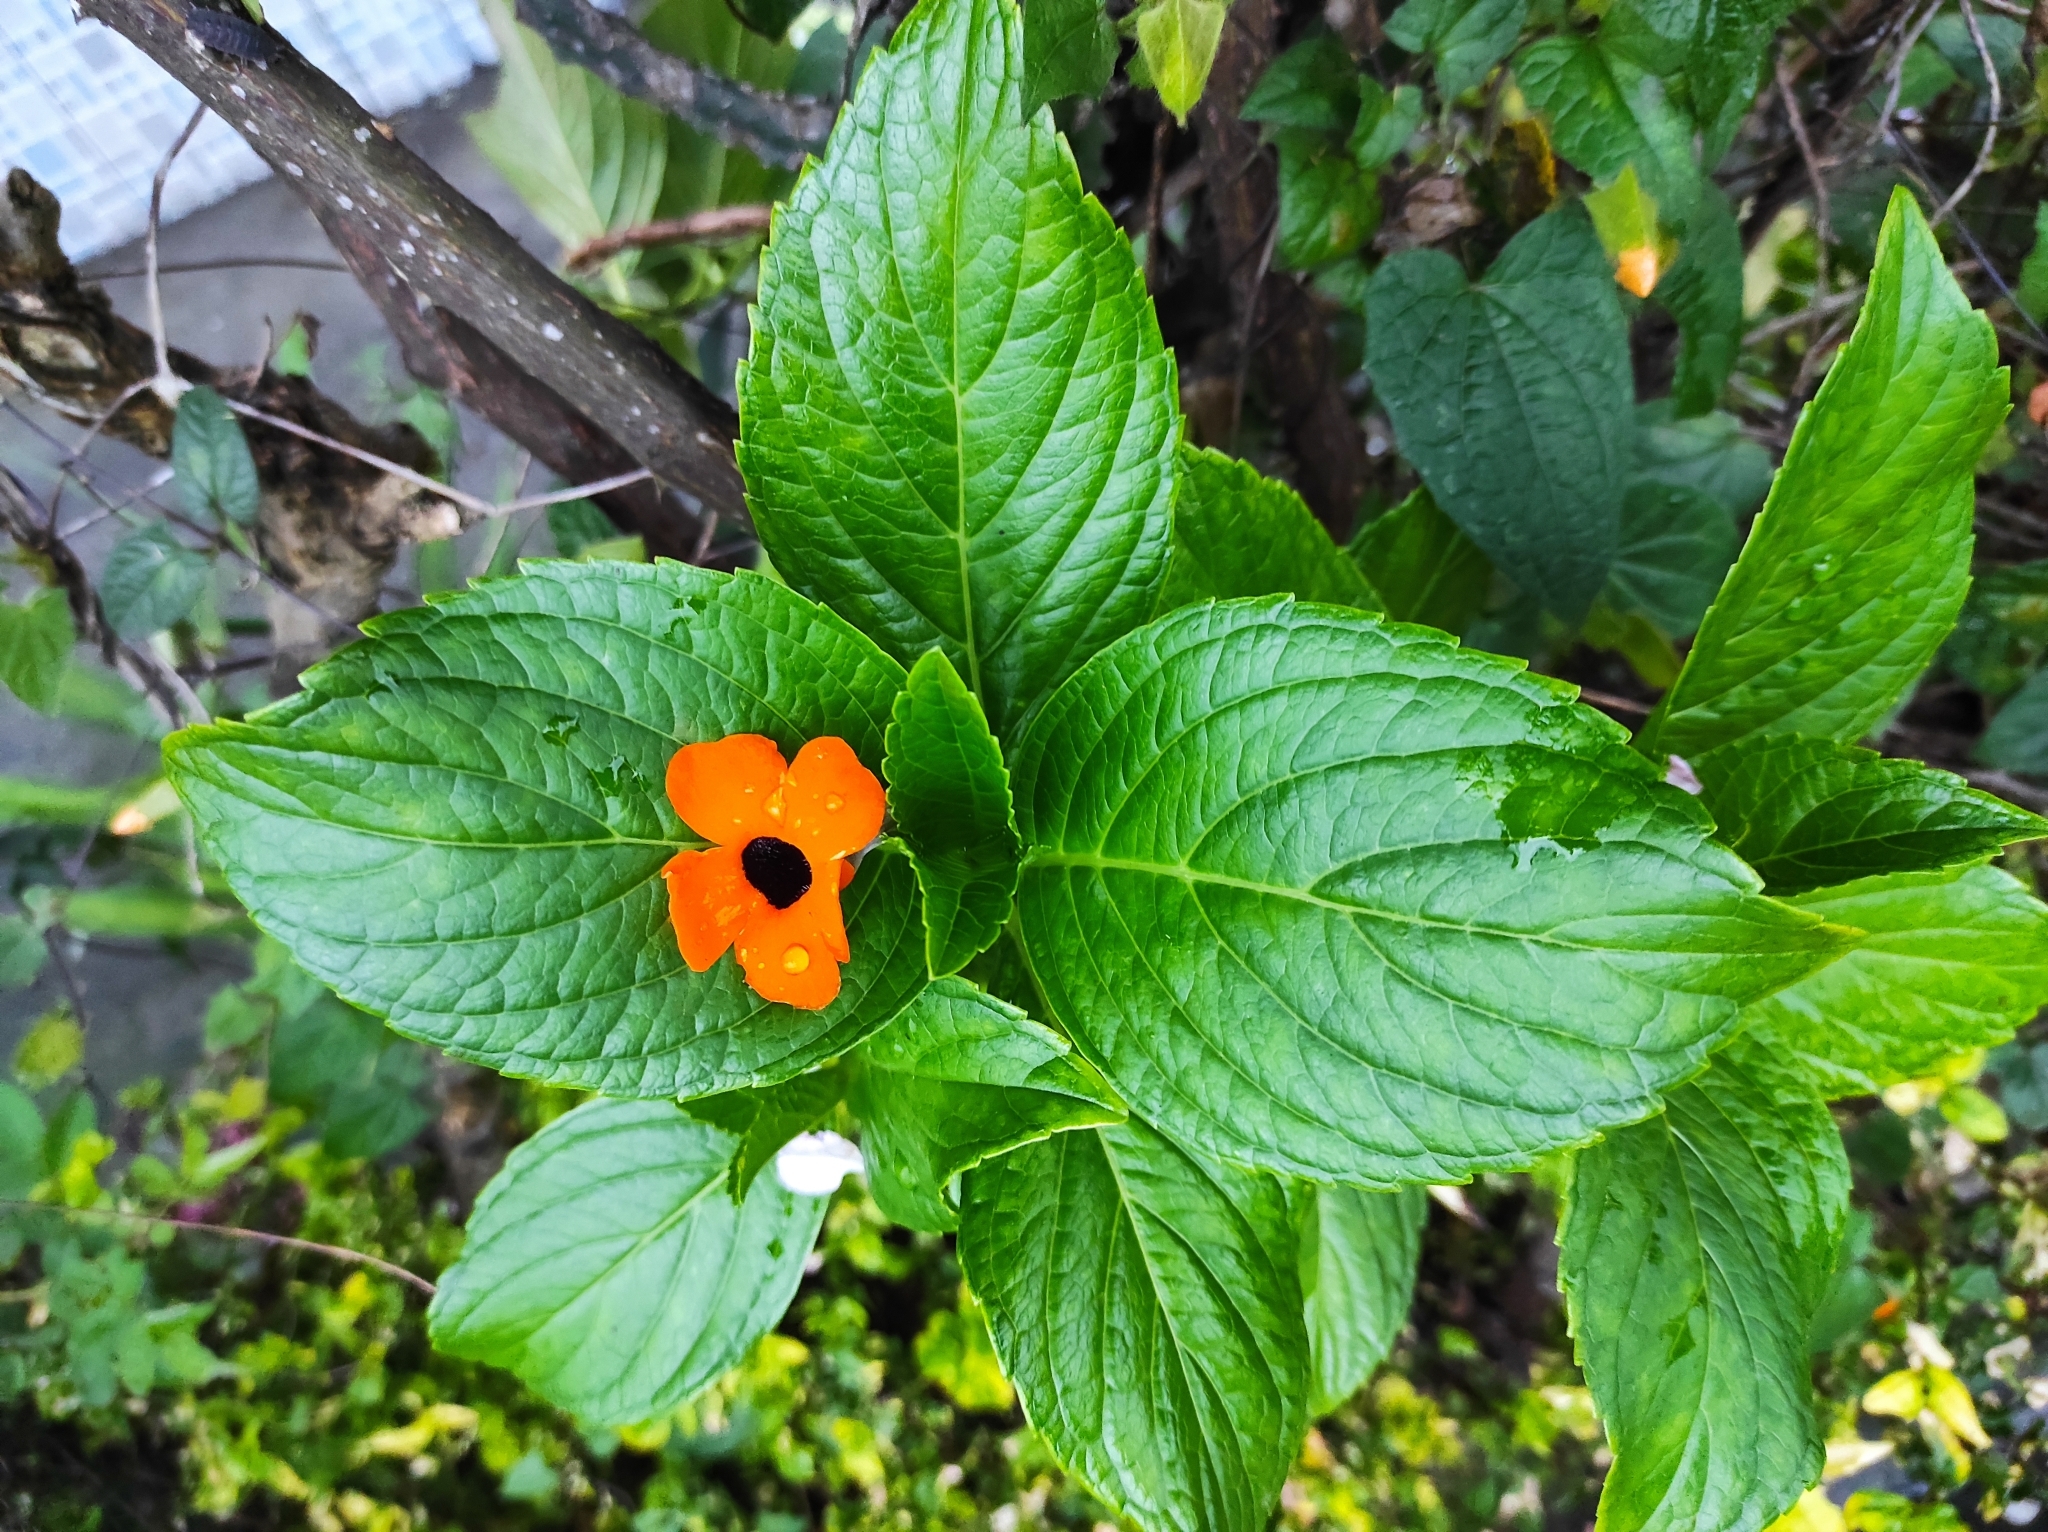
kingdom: Plantae
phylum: Tracheophyta
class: Magnoliopsida
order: Lamiales
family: Acanthaceae
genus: Thunbergia
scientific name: Thunbergia alata
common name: Blackeyed susan vine
